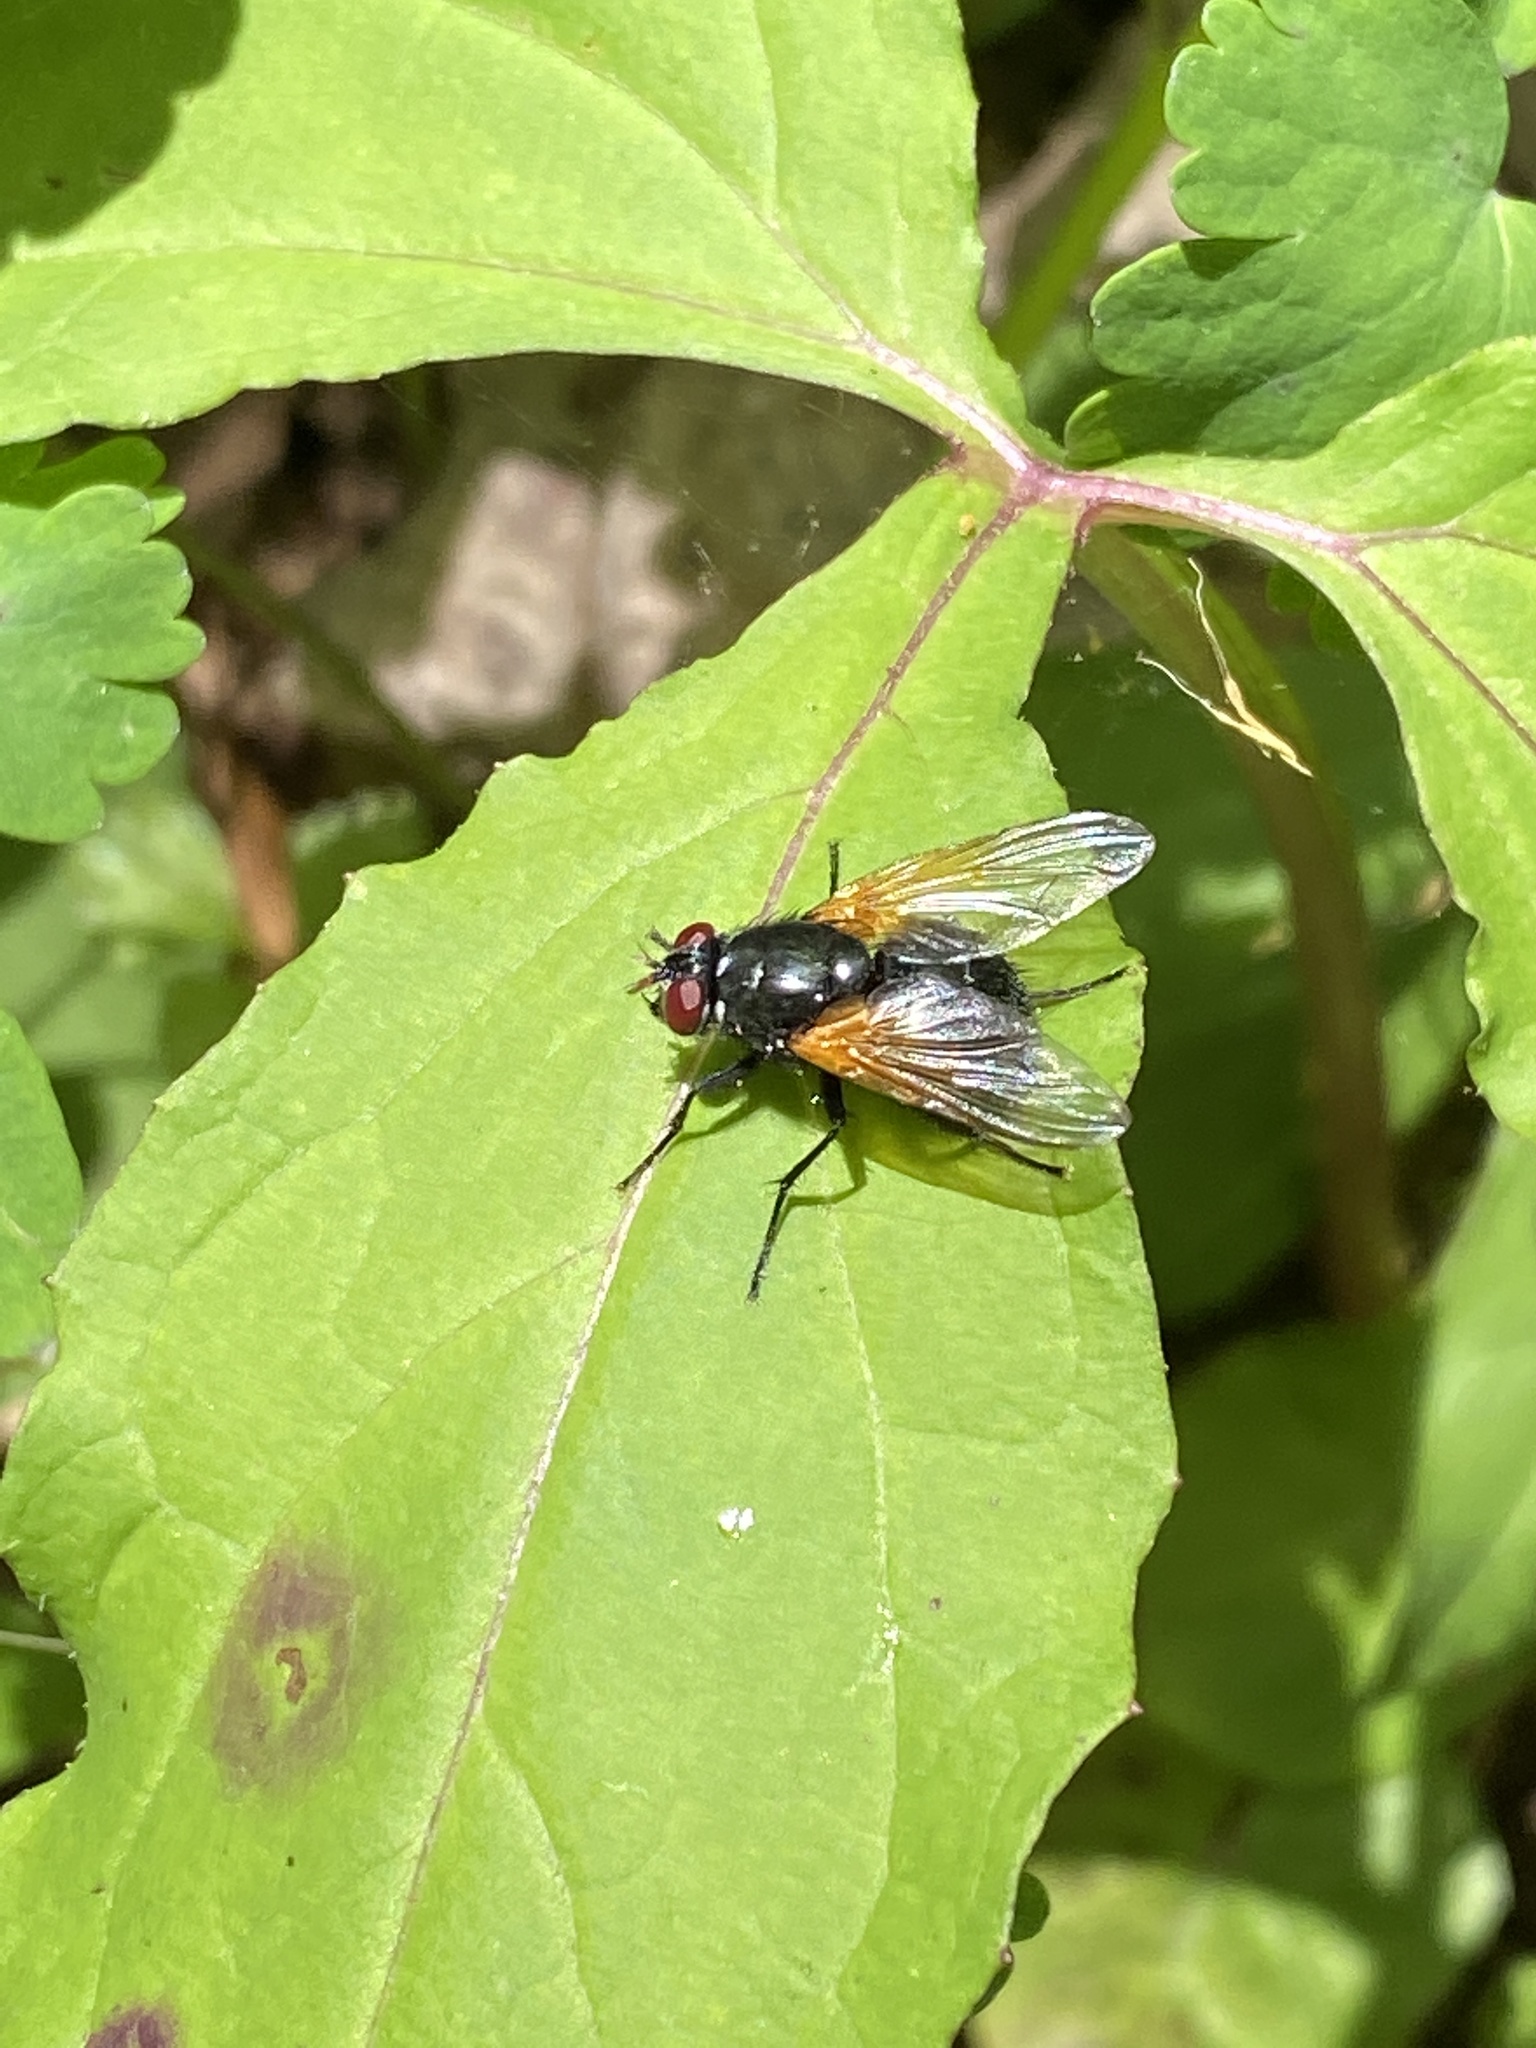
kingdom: Animalia
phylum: Arthropoda
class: Insecta
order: Diptera
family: Muscidae
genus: Mesembrina
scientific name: Mesembrina latreillii
